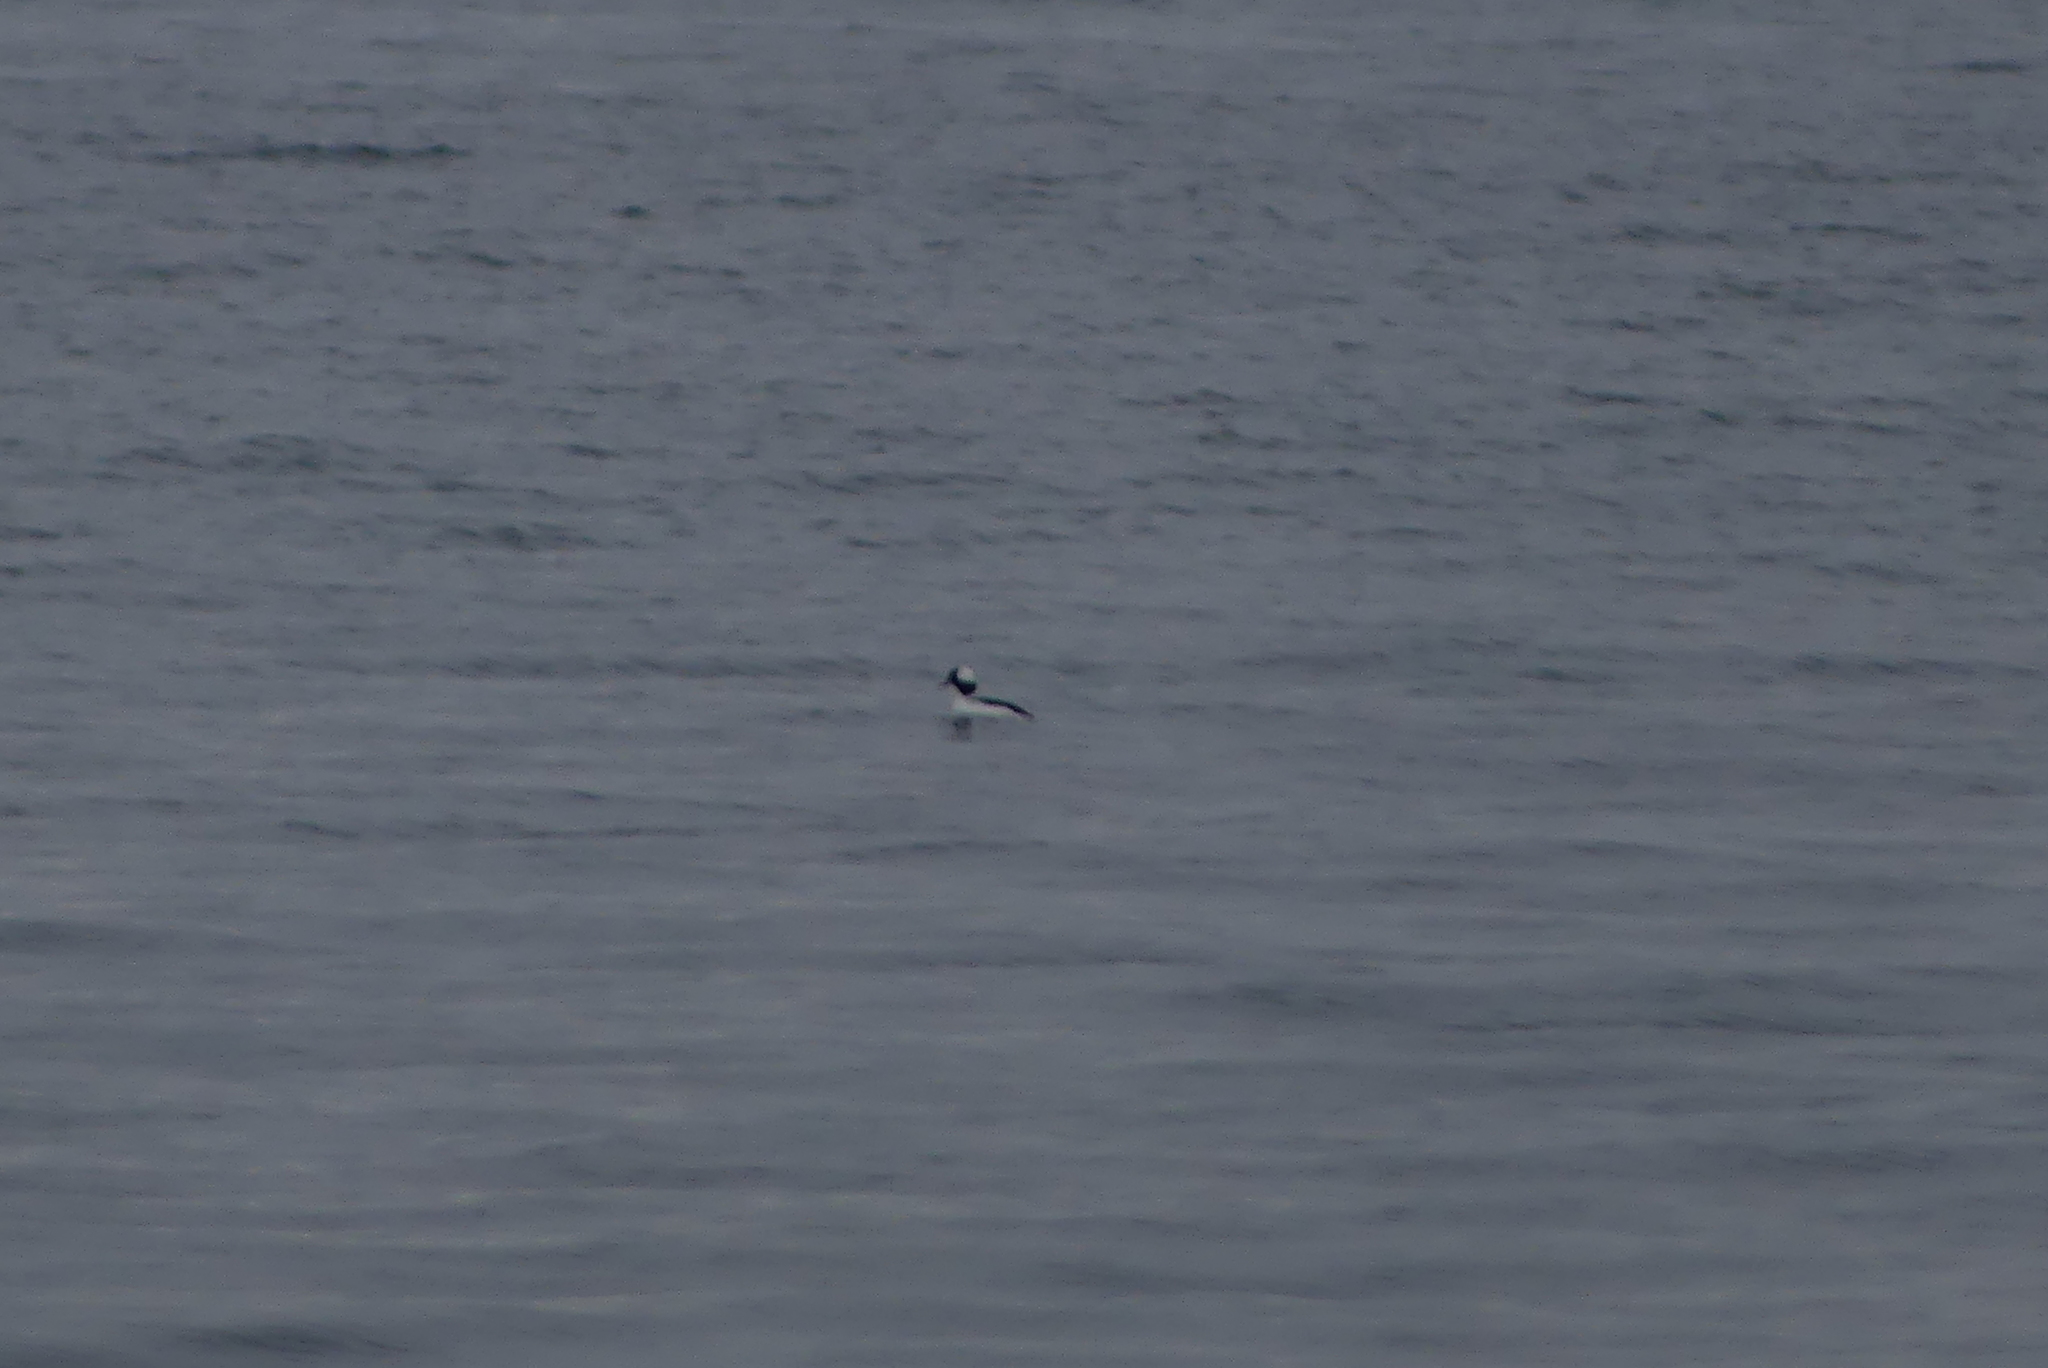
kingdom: Animalia
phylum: Chordata
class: Aves
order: Anseriformes
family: Anatidae
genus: Bucephala
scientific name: Bucephala albeola
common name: Bufflehead
